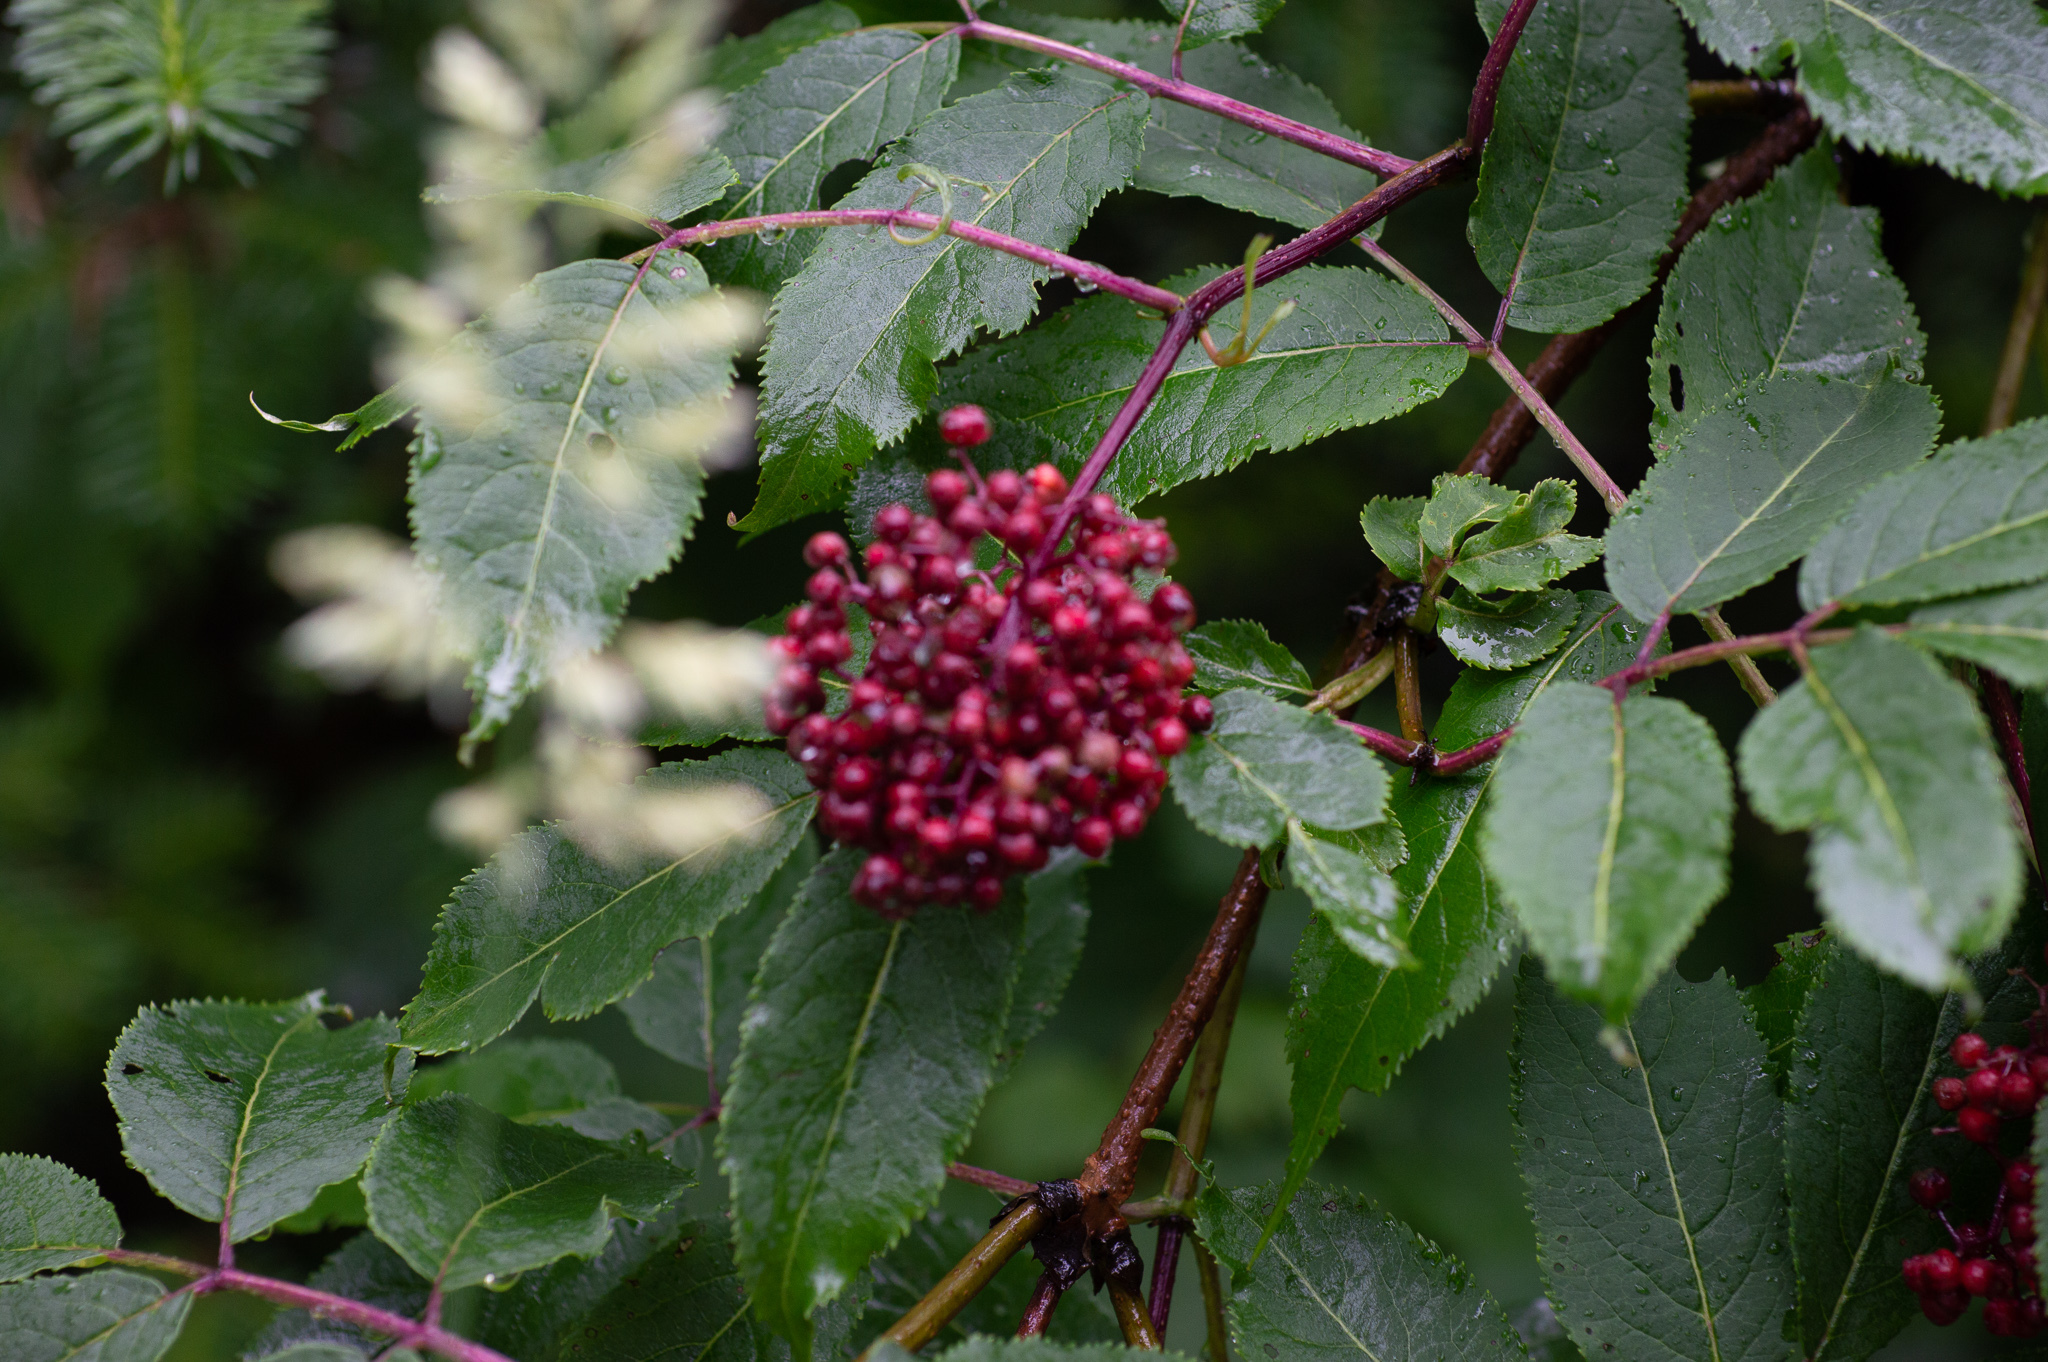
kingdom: Plantae
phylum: Tracheophyta
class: Magnoliopsida
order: Dipsacales
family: Viburnaceae
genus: Sambucus
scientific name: Sambucus racemosa
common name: Red-berried elder
